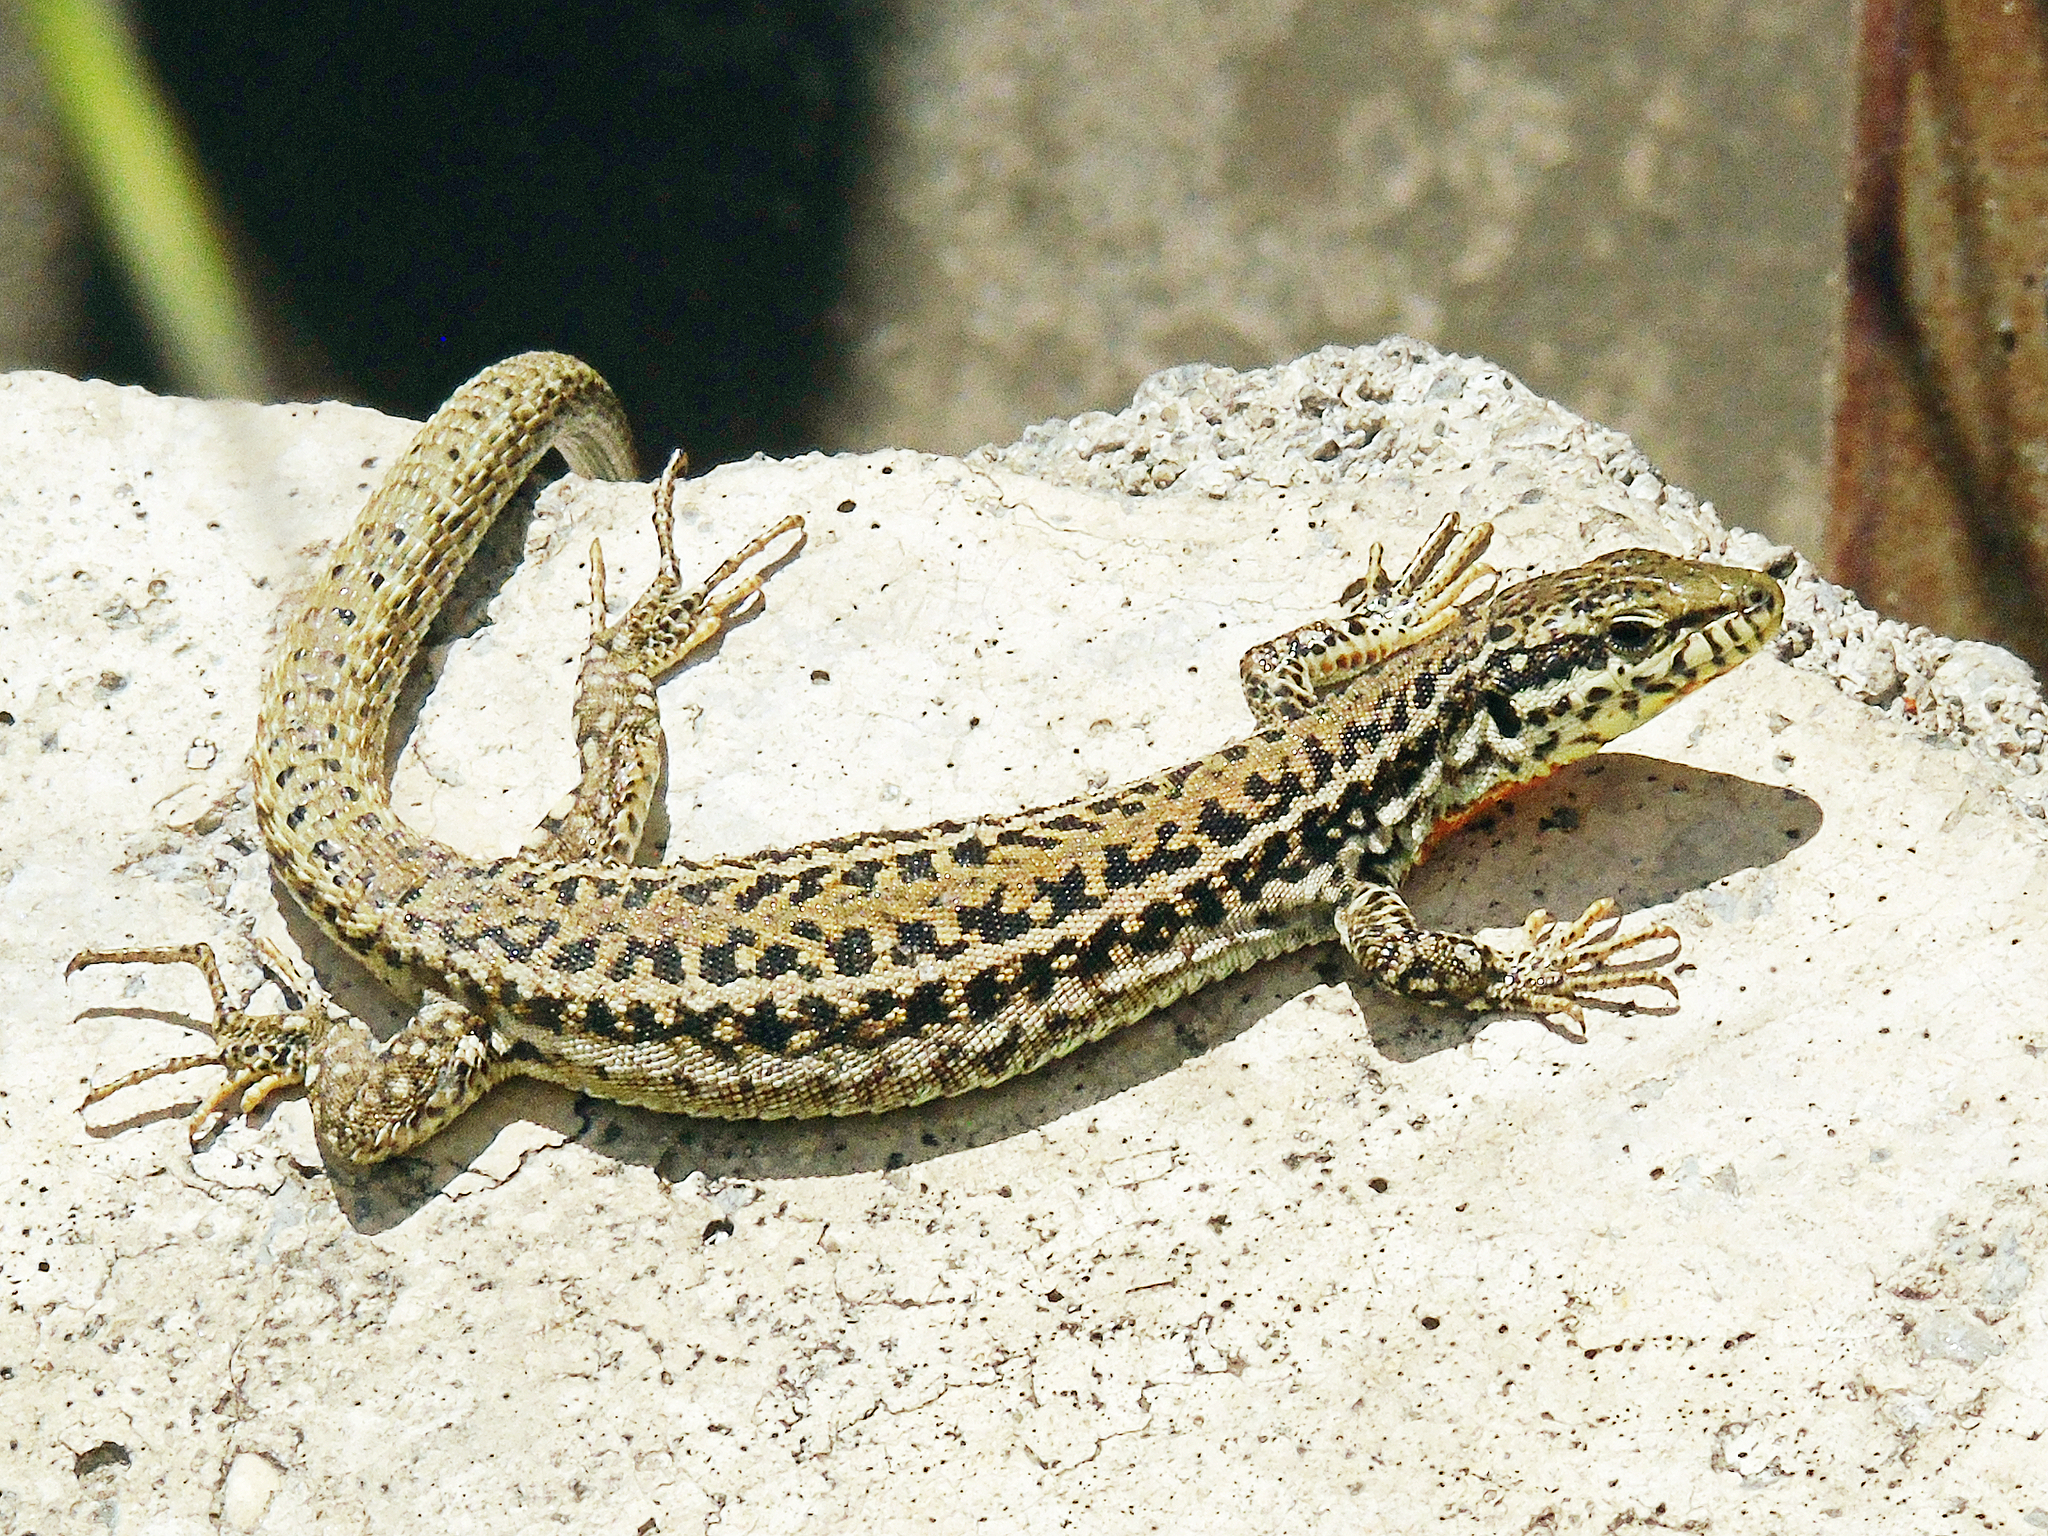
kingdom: Animalia
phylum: Chordata
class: Squamata
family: Lacertidae
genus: Podarcis
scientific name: Podarcis erhardii
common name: Erhard's wall lizard
